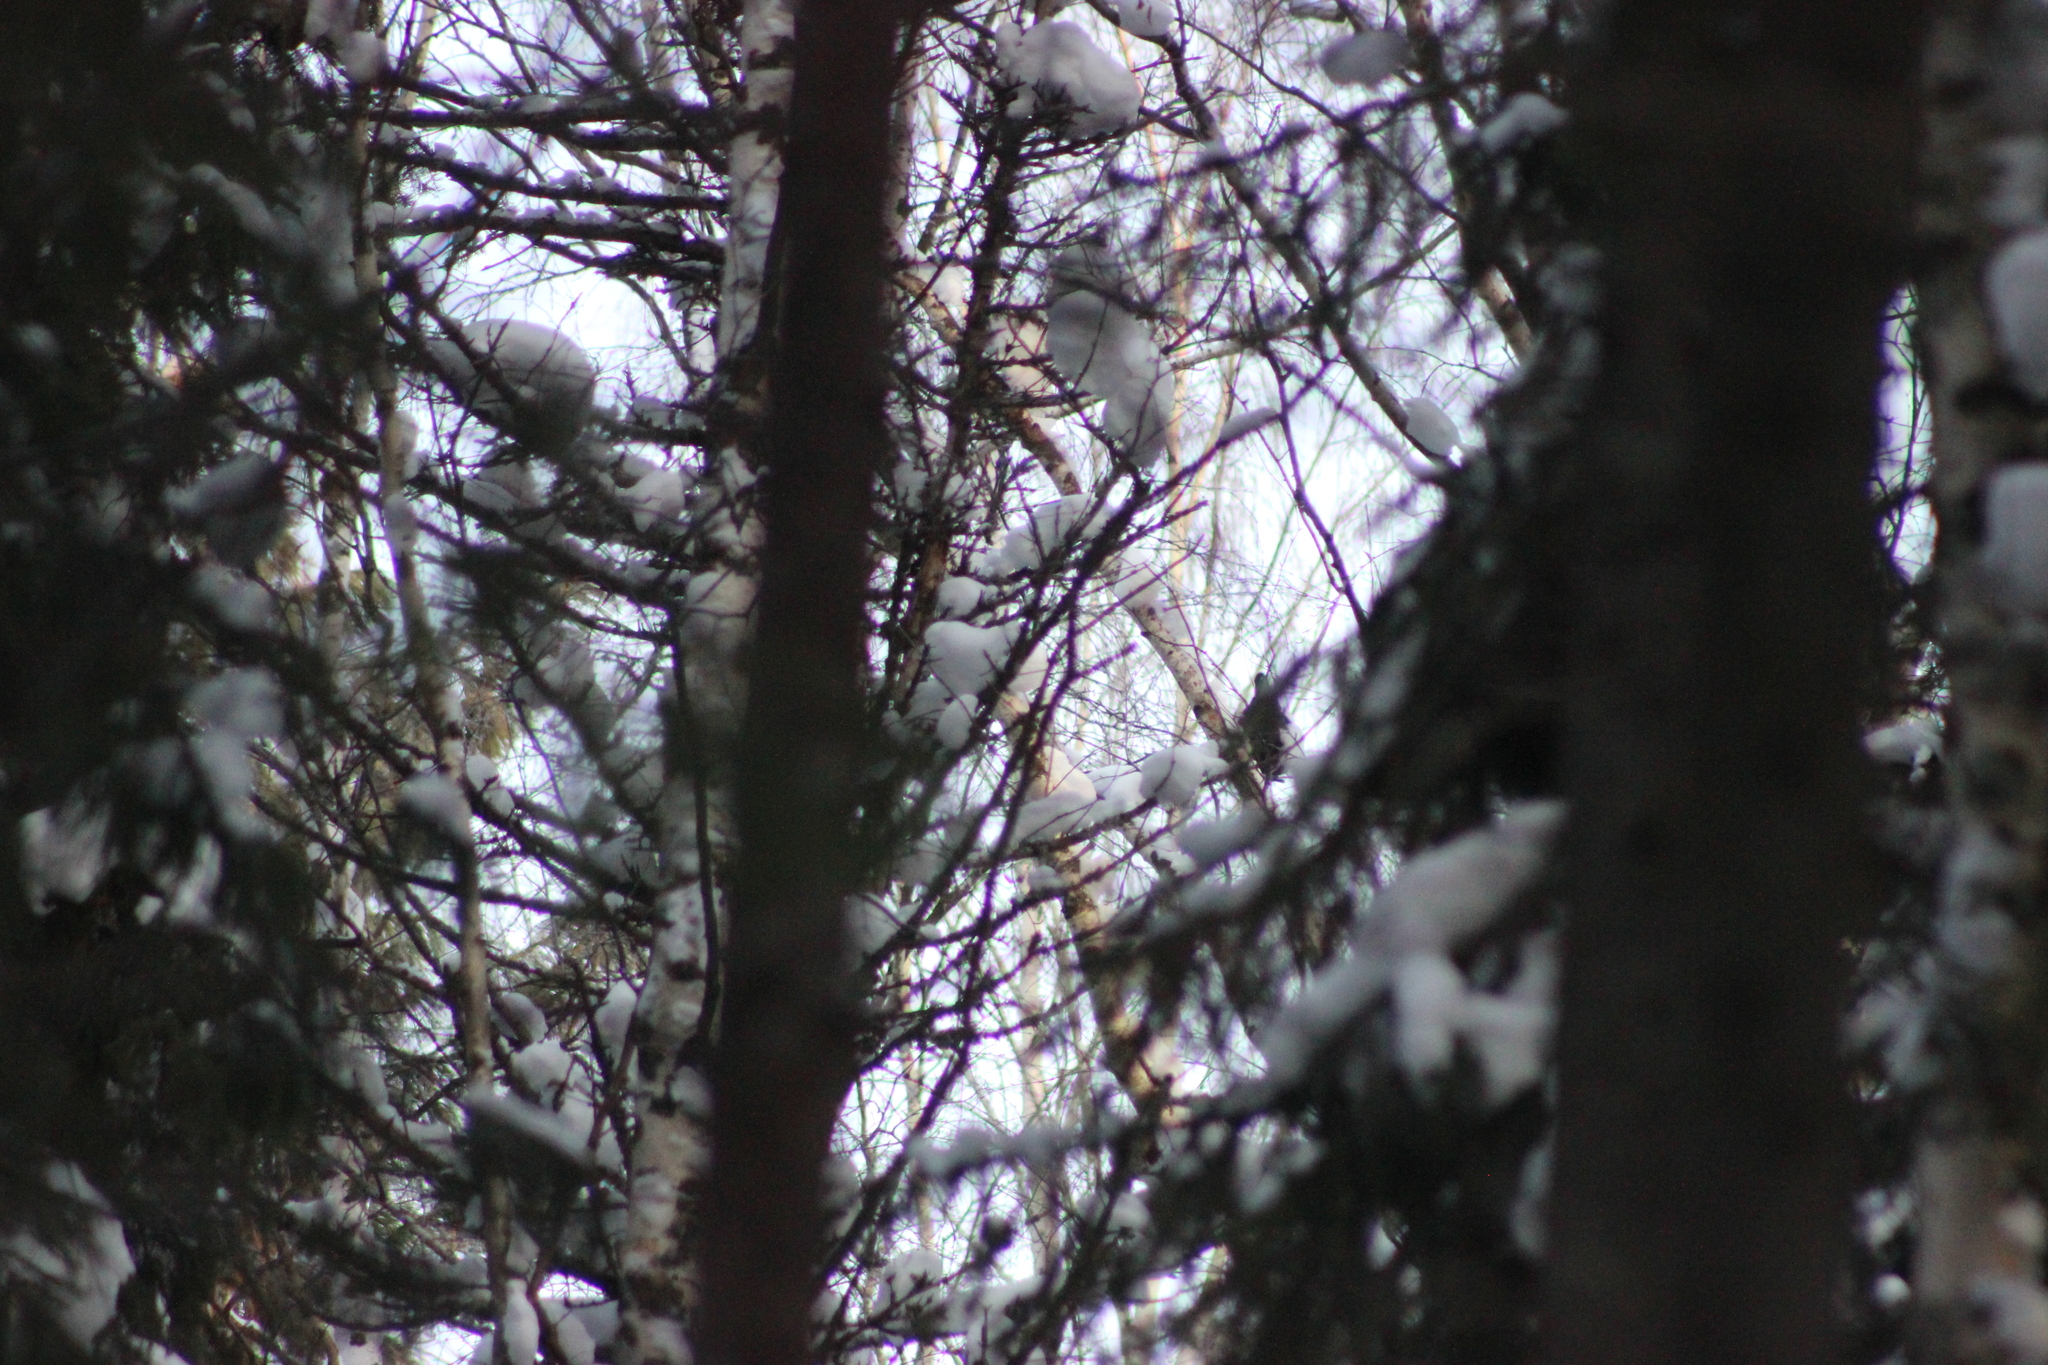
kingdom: Animalia
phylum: Chordata
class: Aves
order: Passeriformes
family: Corvidae
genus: Pica
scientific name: Pica pica
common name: Eurasian magpie
